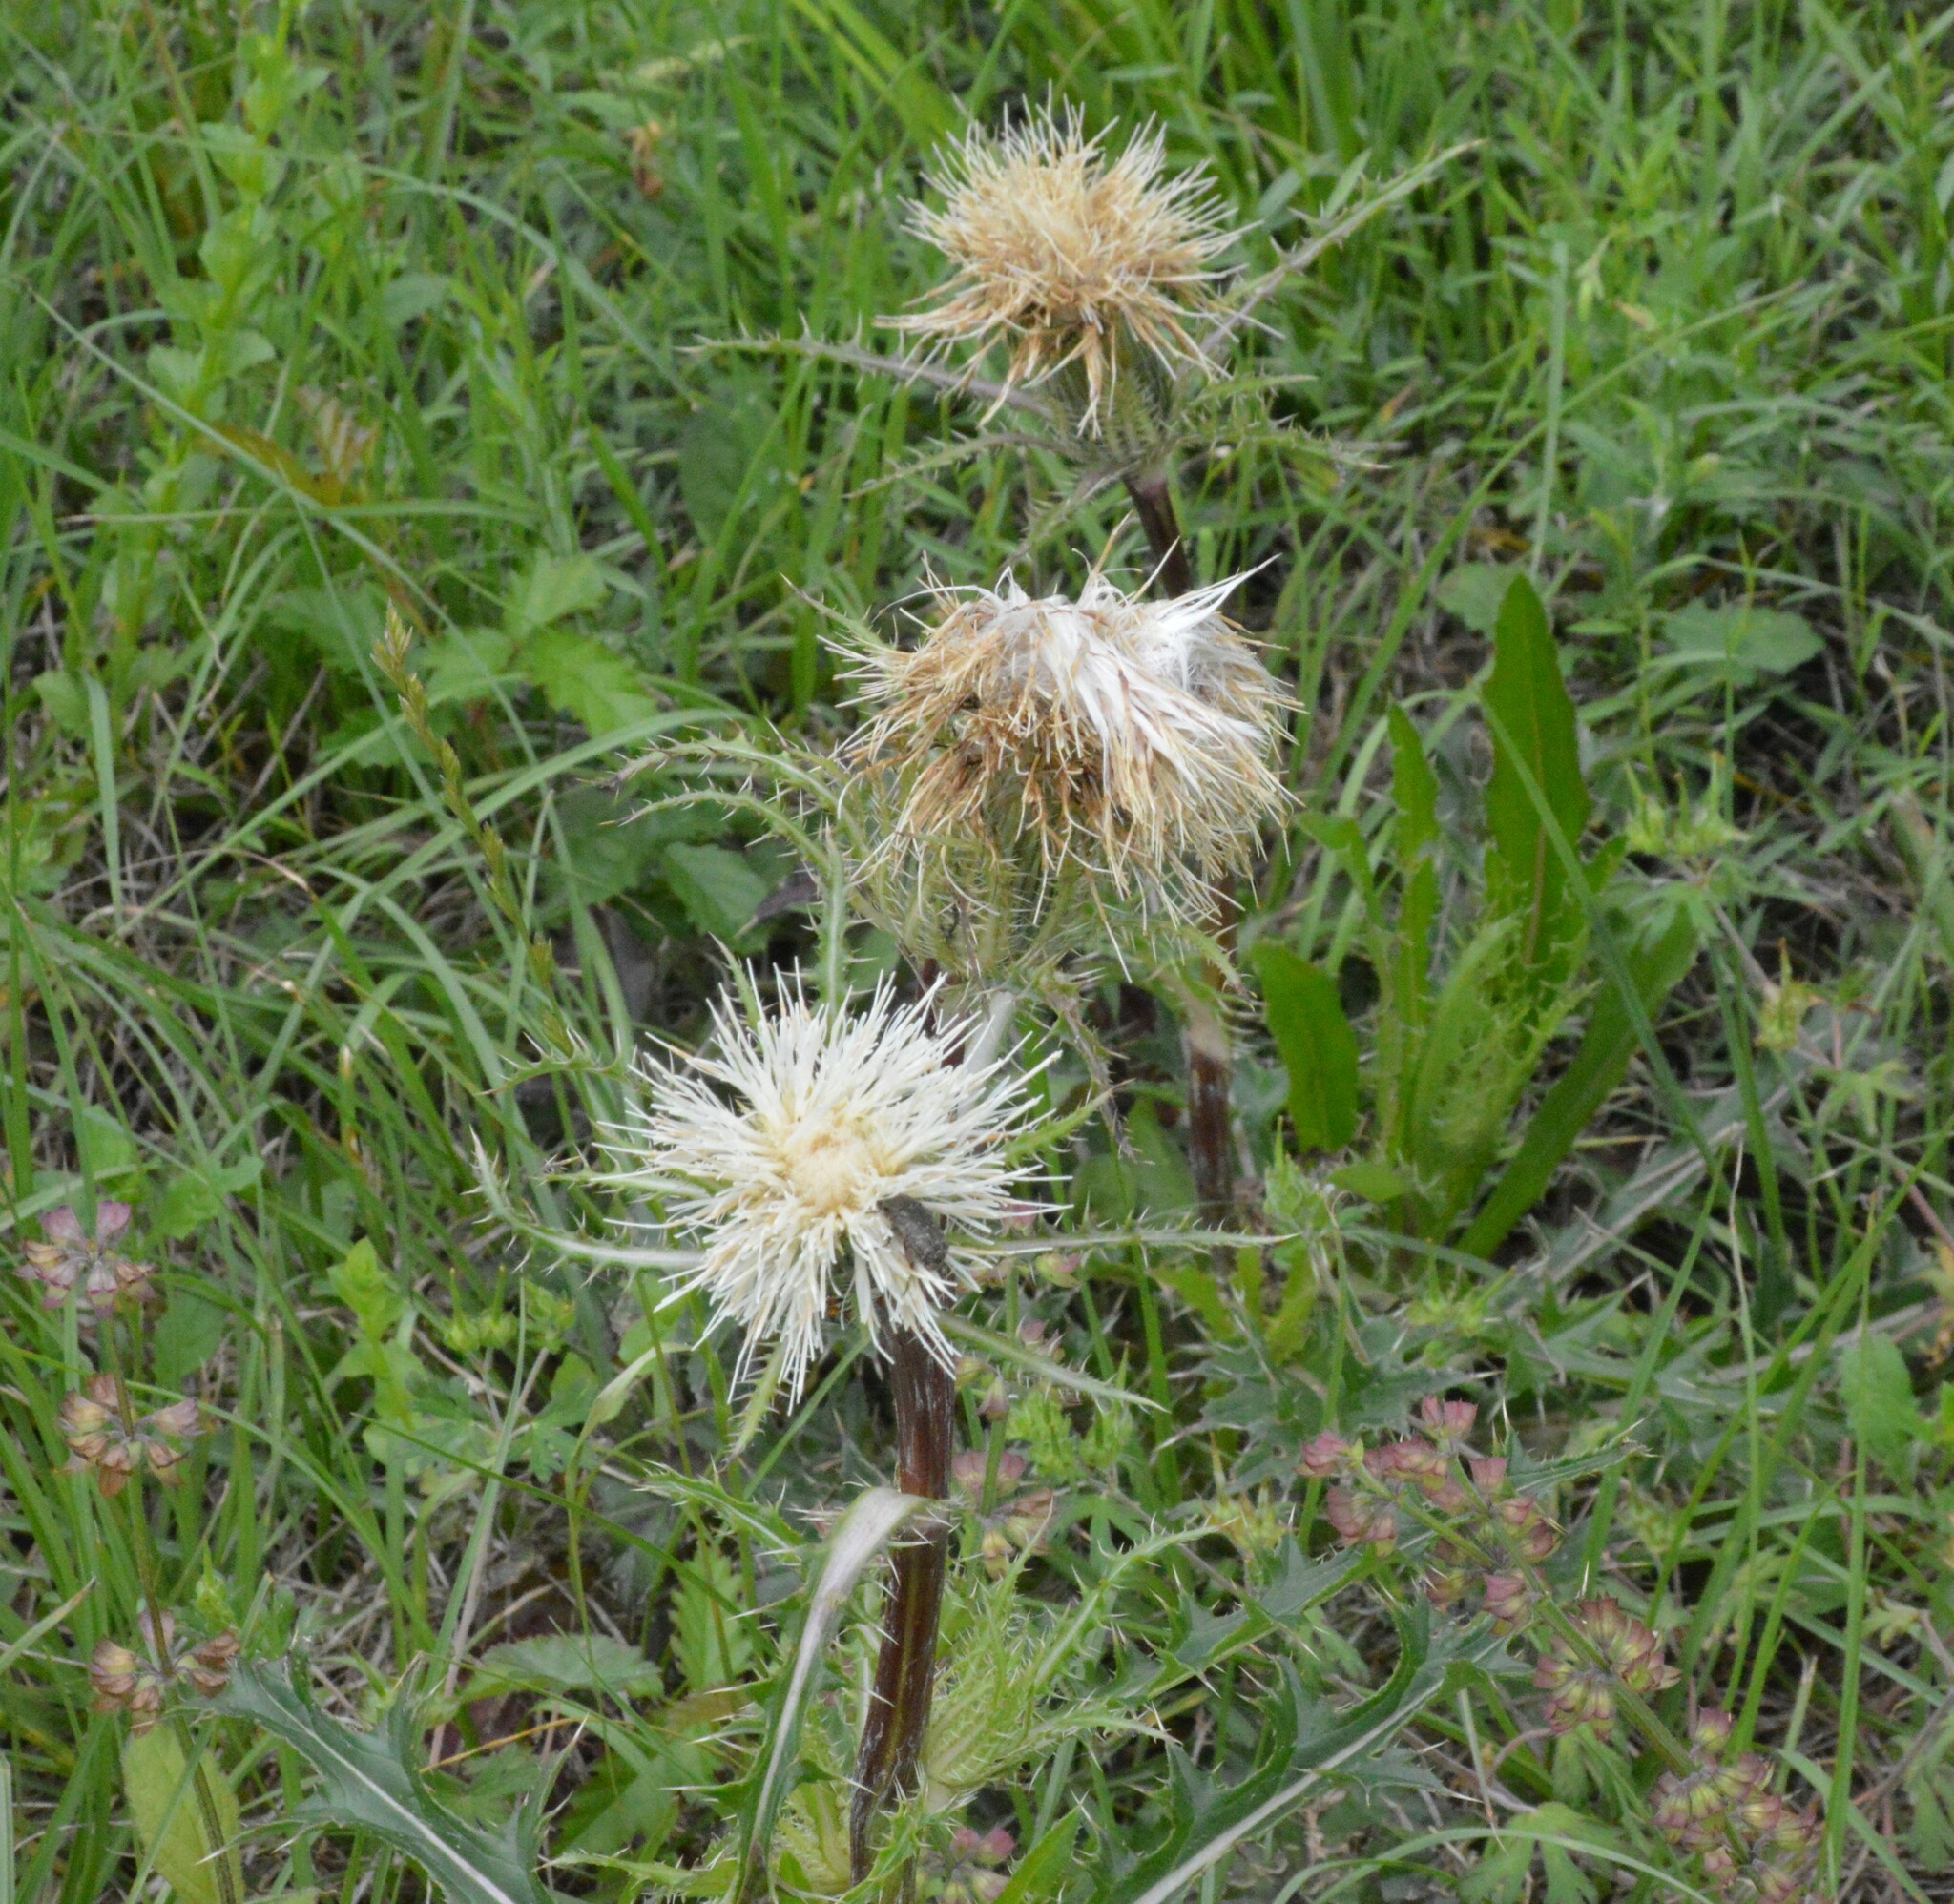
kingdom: Plantae
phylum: Tracheophyta
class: Magnoliopsida
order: Asterales
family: Asteraceae
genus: Cirsium
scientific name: Cirsium horridulum
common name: Bristly thistle
